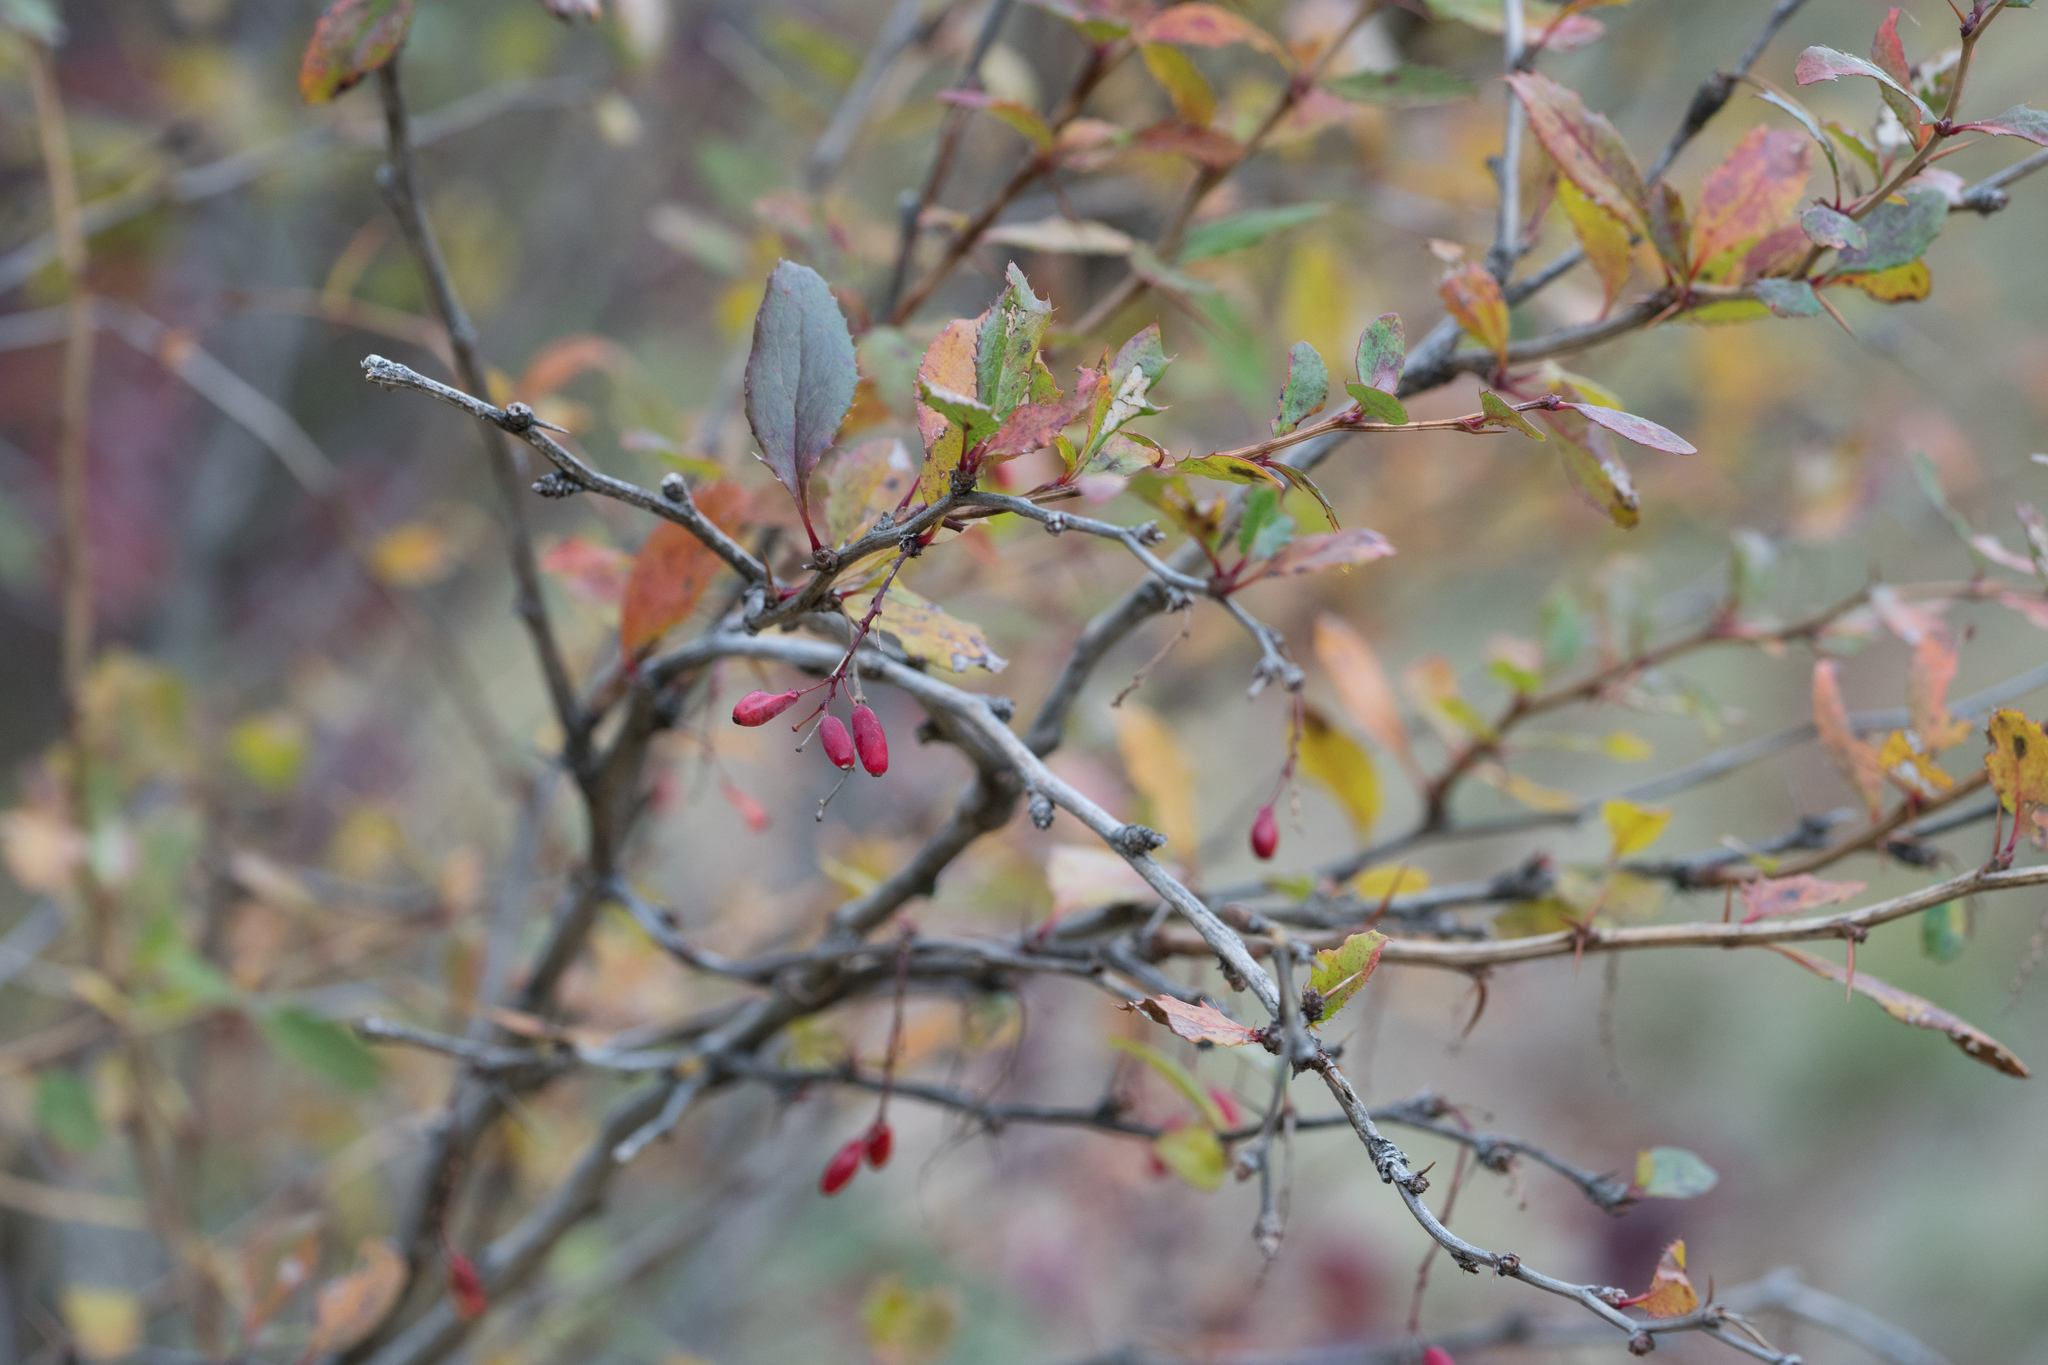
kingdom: Plantae
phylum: Tracheophyta
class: Magnoliopsida
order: Ranunculales
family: Berberidaceae
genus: Berberis
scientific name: Berberis vulgaris
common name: Barberry
